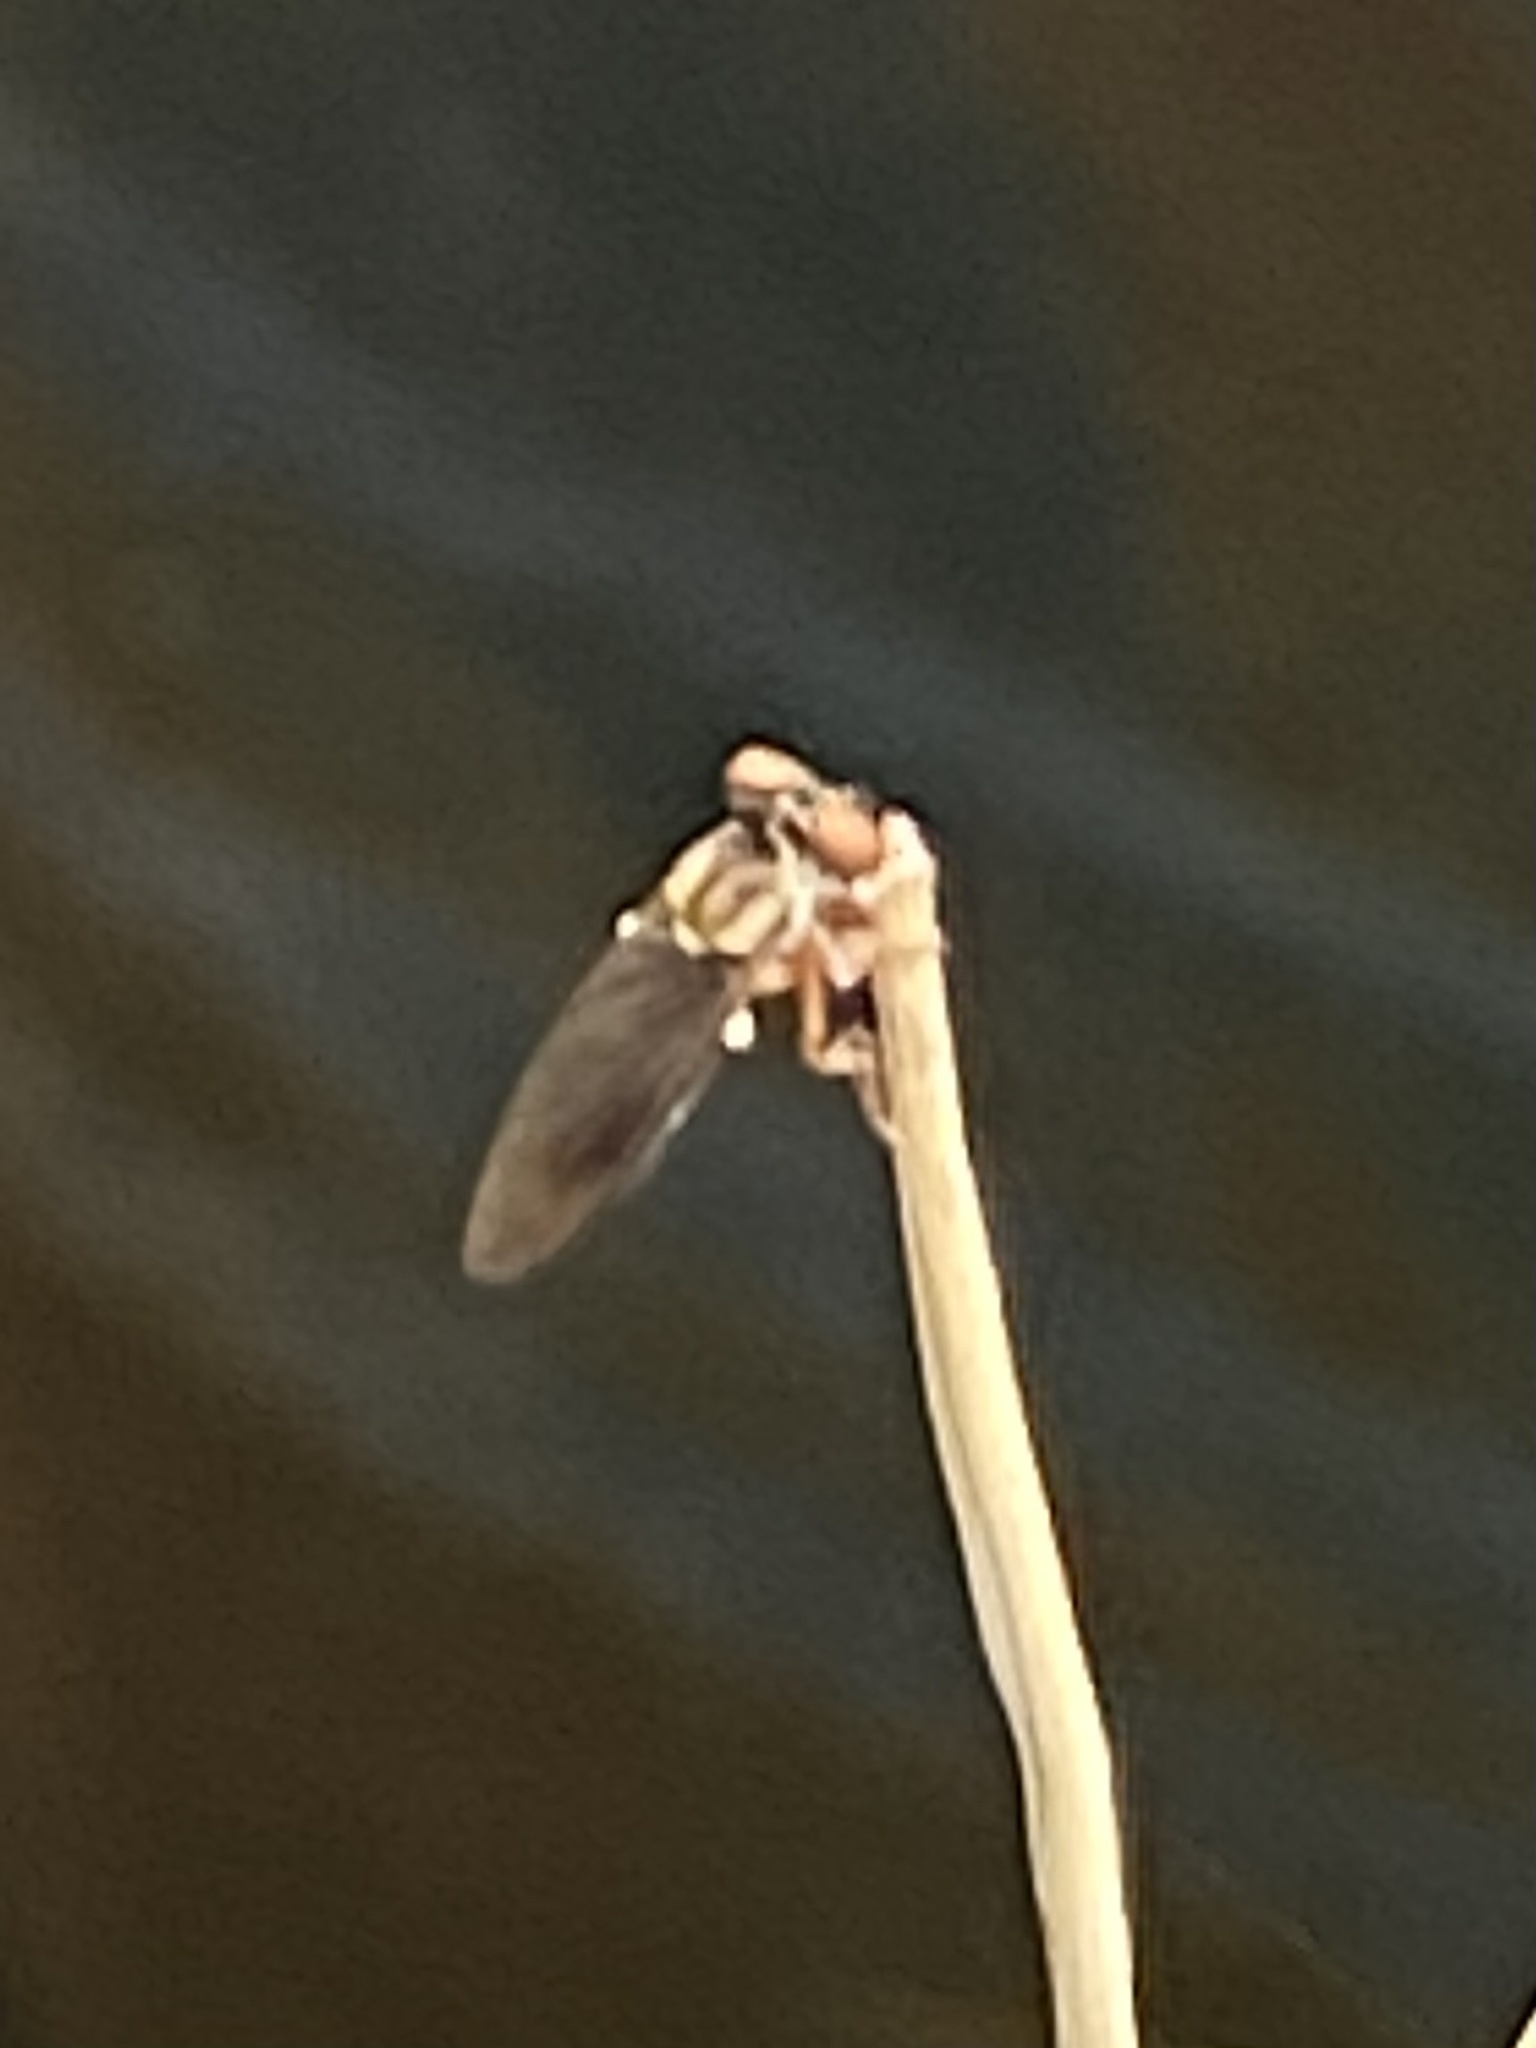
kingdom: Animalia
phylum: Arthropoda
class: Insecta
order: Diptera
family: Asilidae
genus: Holcocephala
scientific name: Holcocephala
